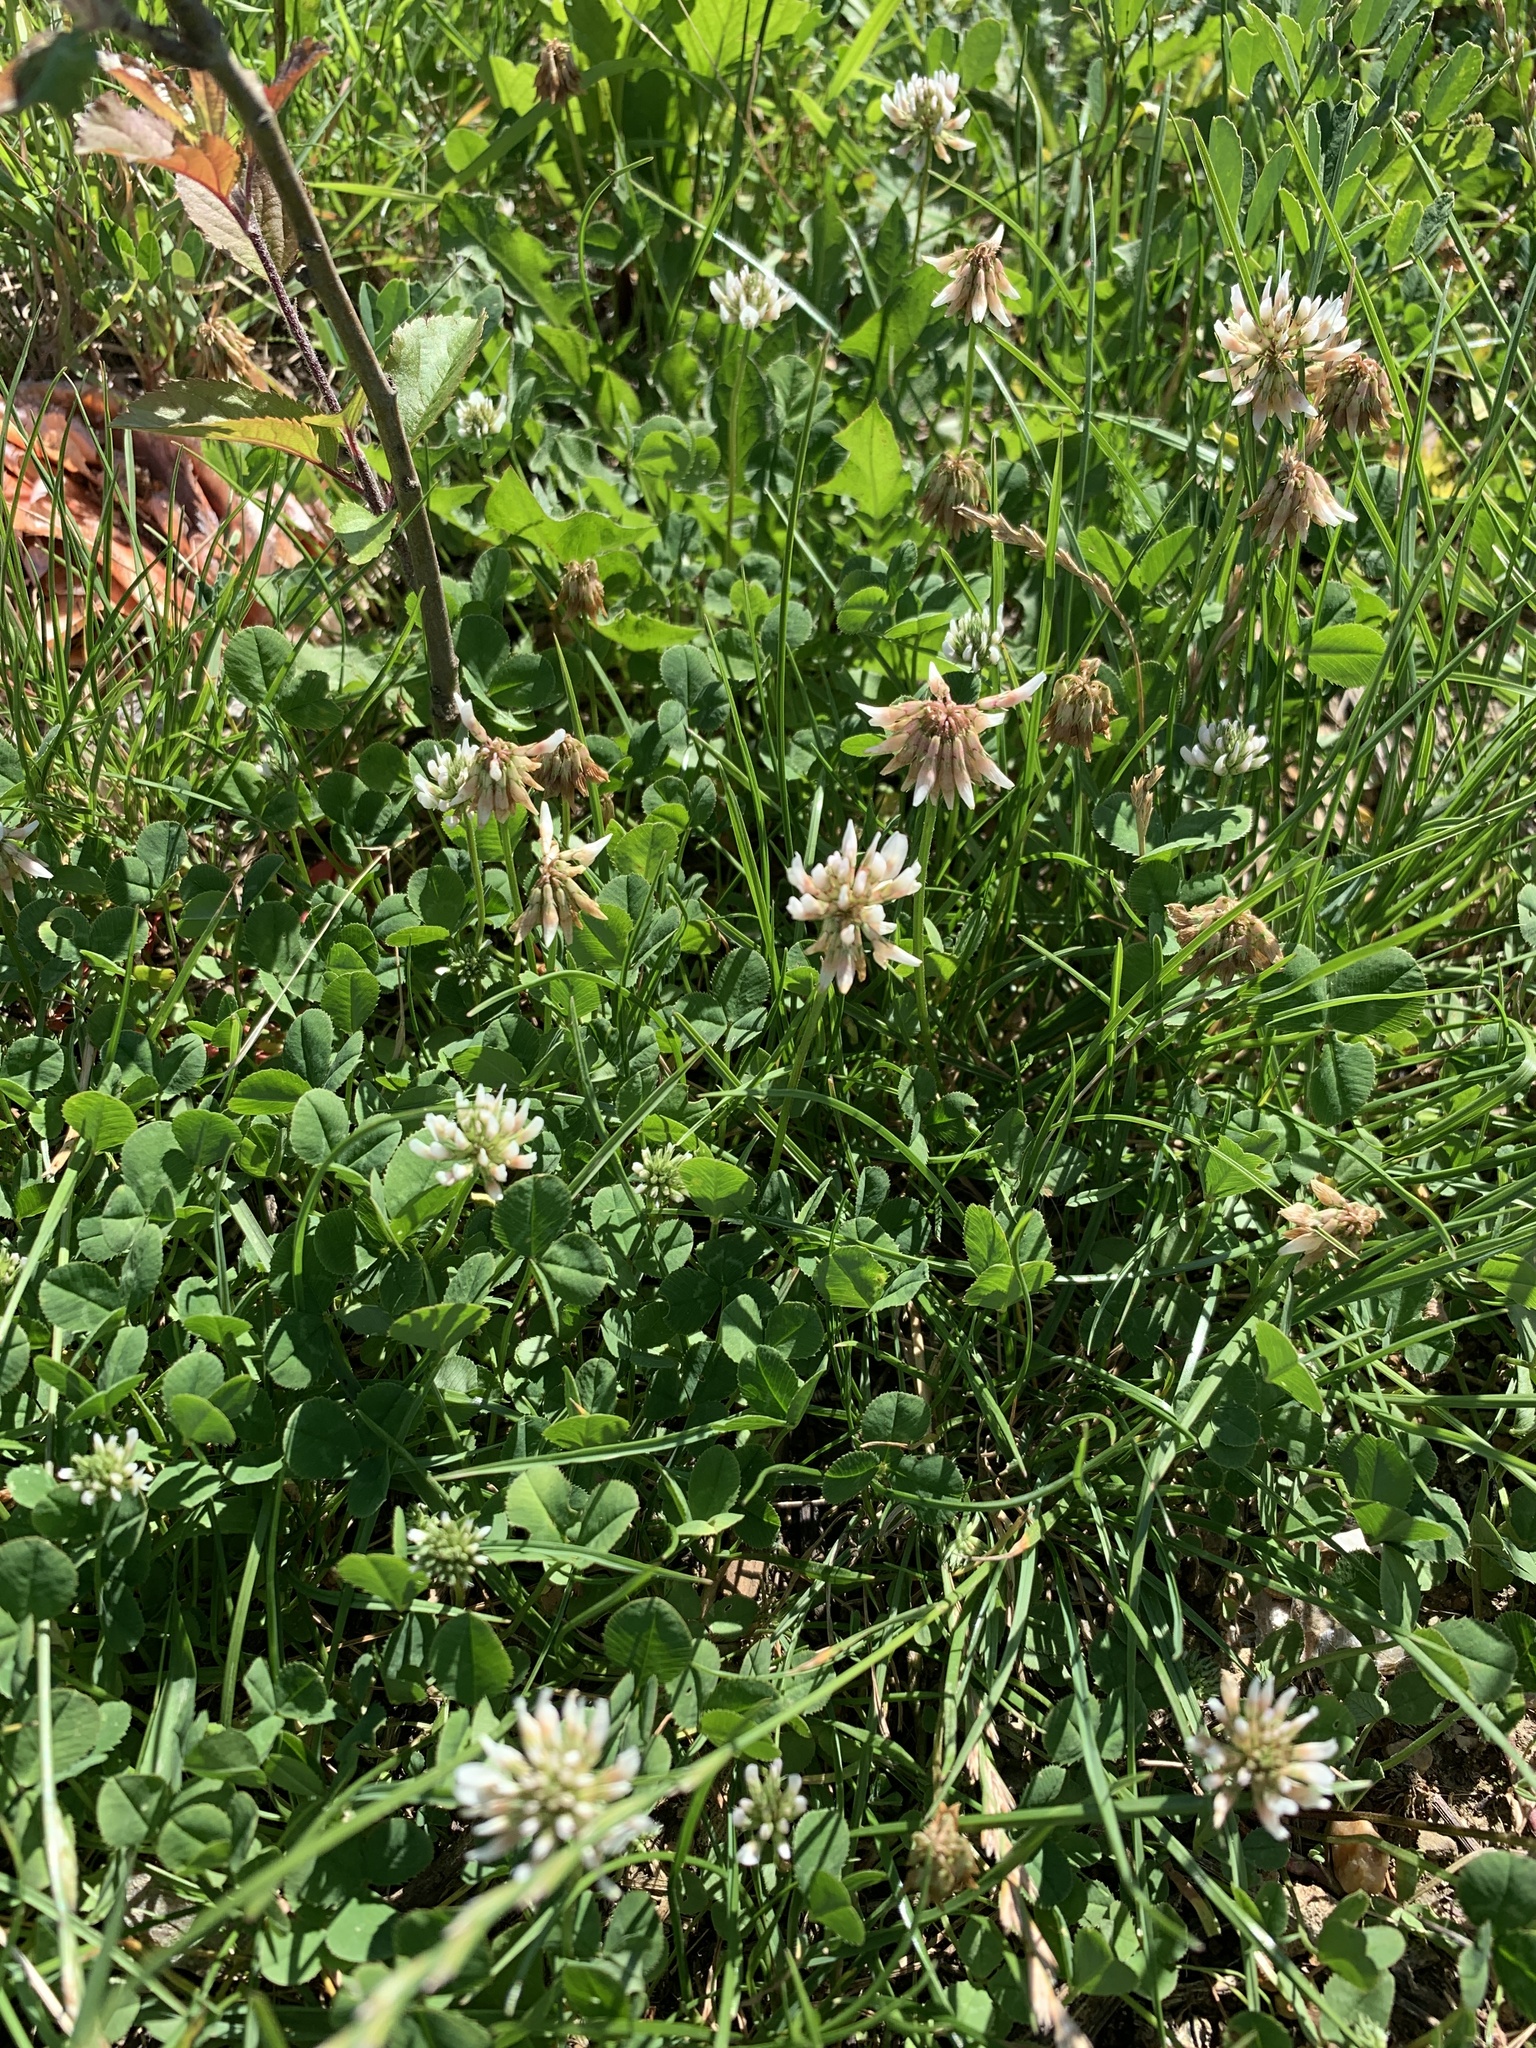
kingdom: Plantae
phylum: Tracheophyta
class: Magnoliopsida
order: Fabales
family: Fabaceae
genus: Trifolium
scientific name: Trifolium repens
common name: White clover
